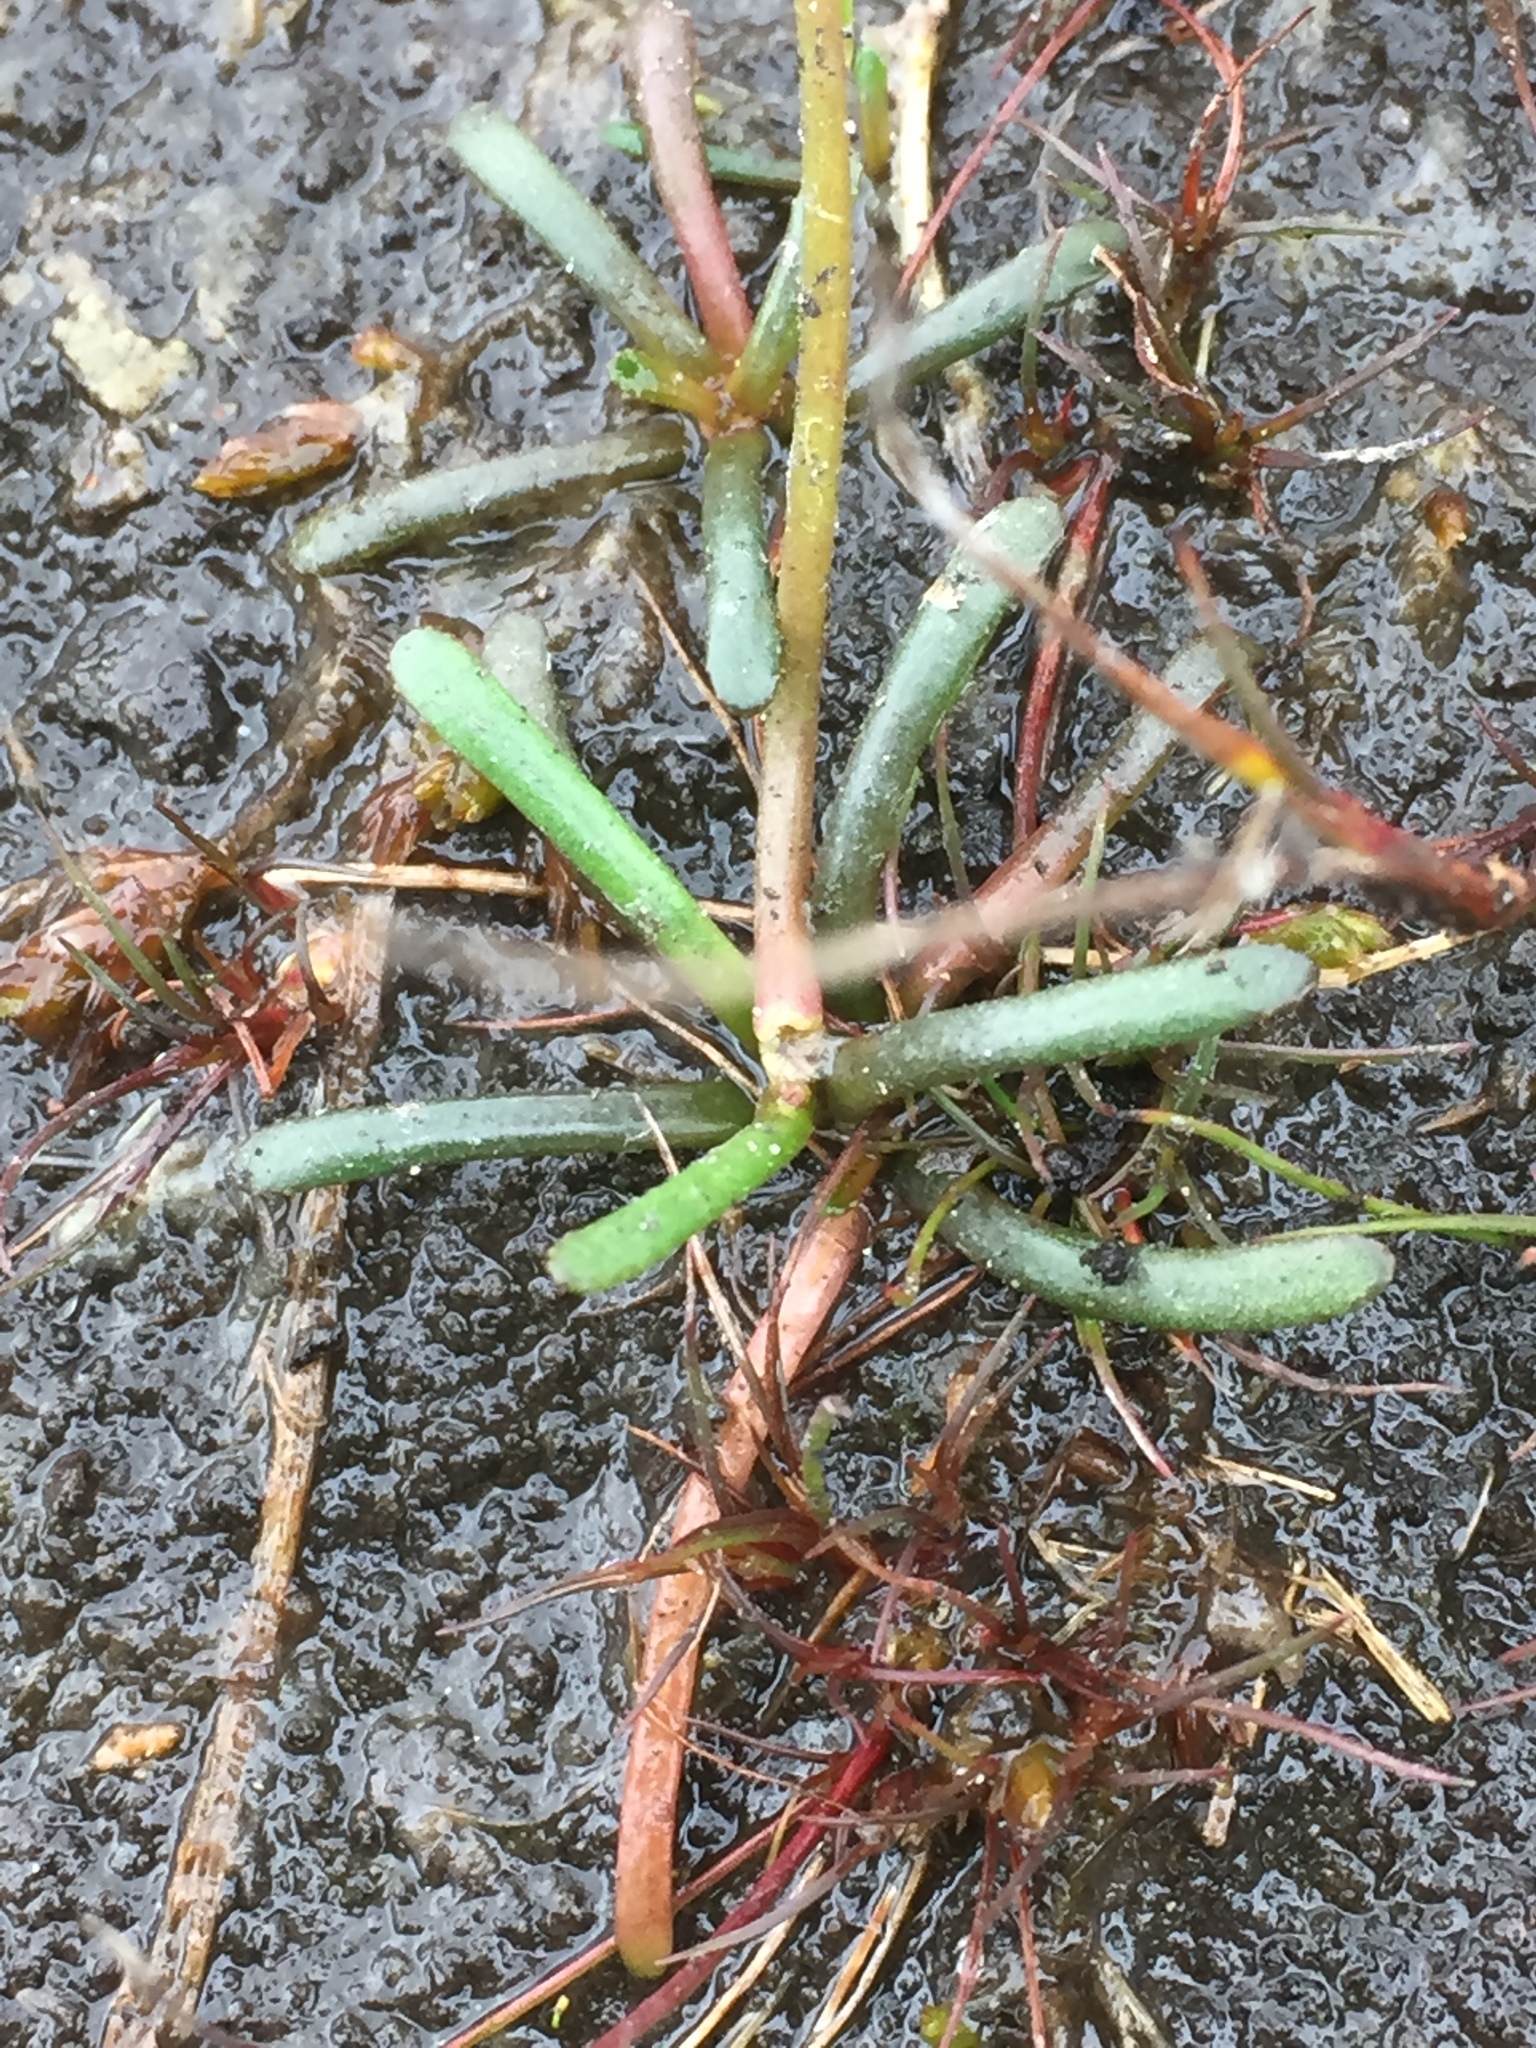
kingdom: Plantae
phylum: Tracheophyta
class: Magnoliopsida
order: Asterales
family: Campanulaceae
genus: Lobelia
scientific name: Lobelia dortmanna
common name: Water lobelia
